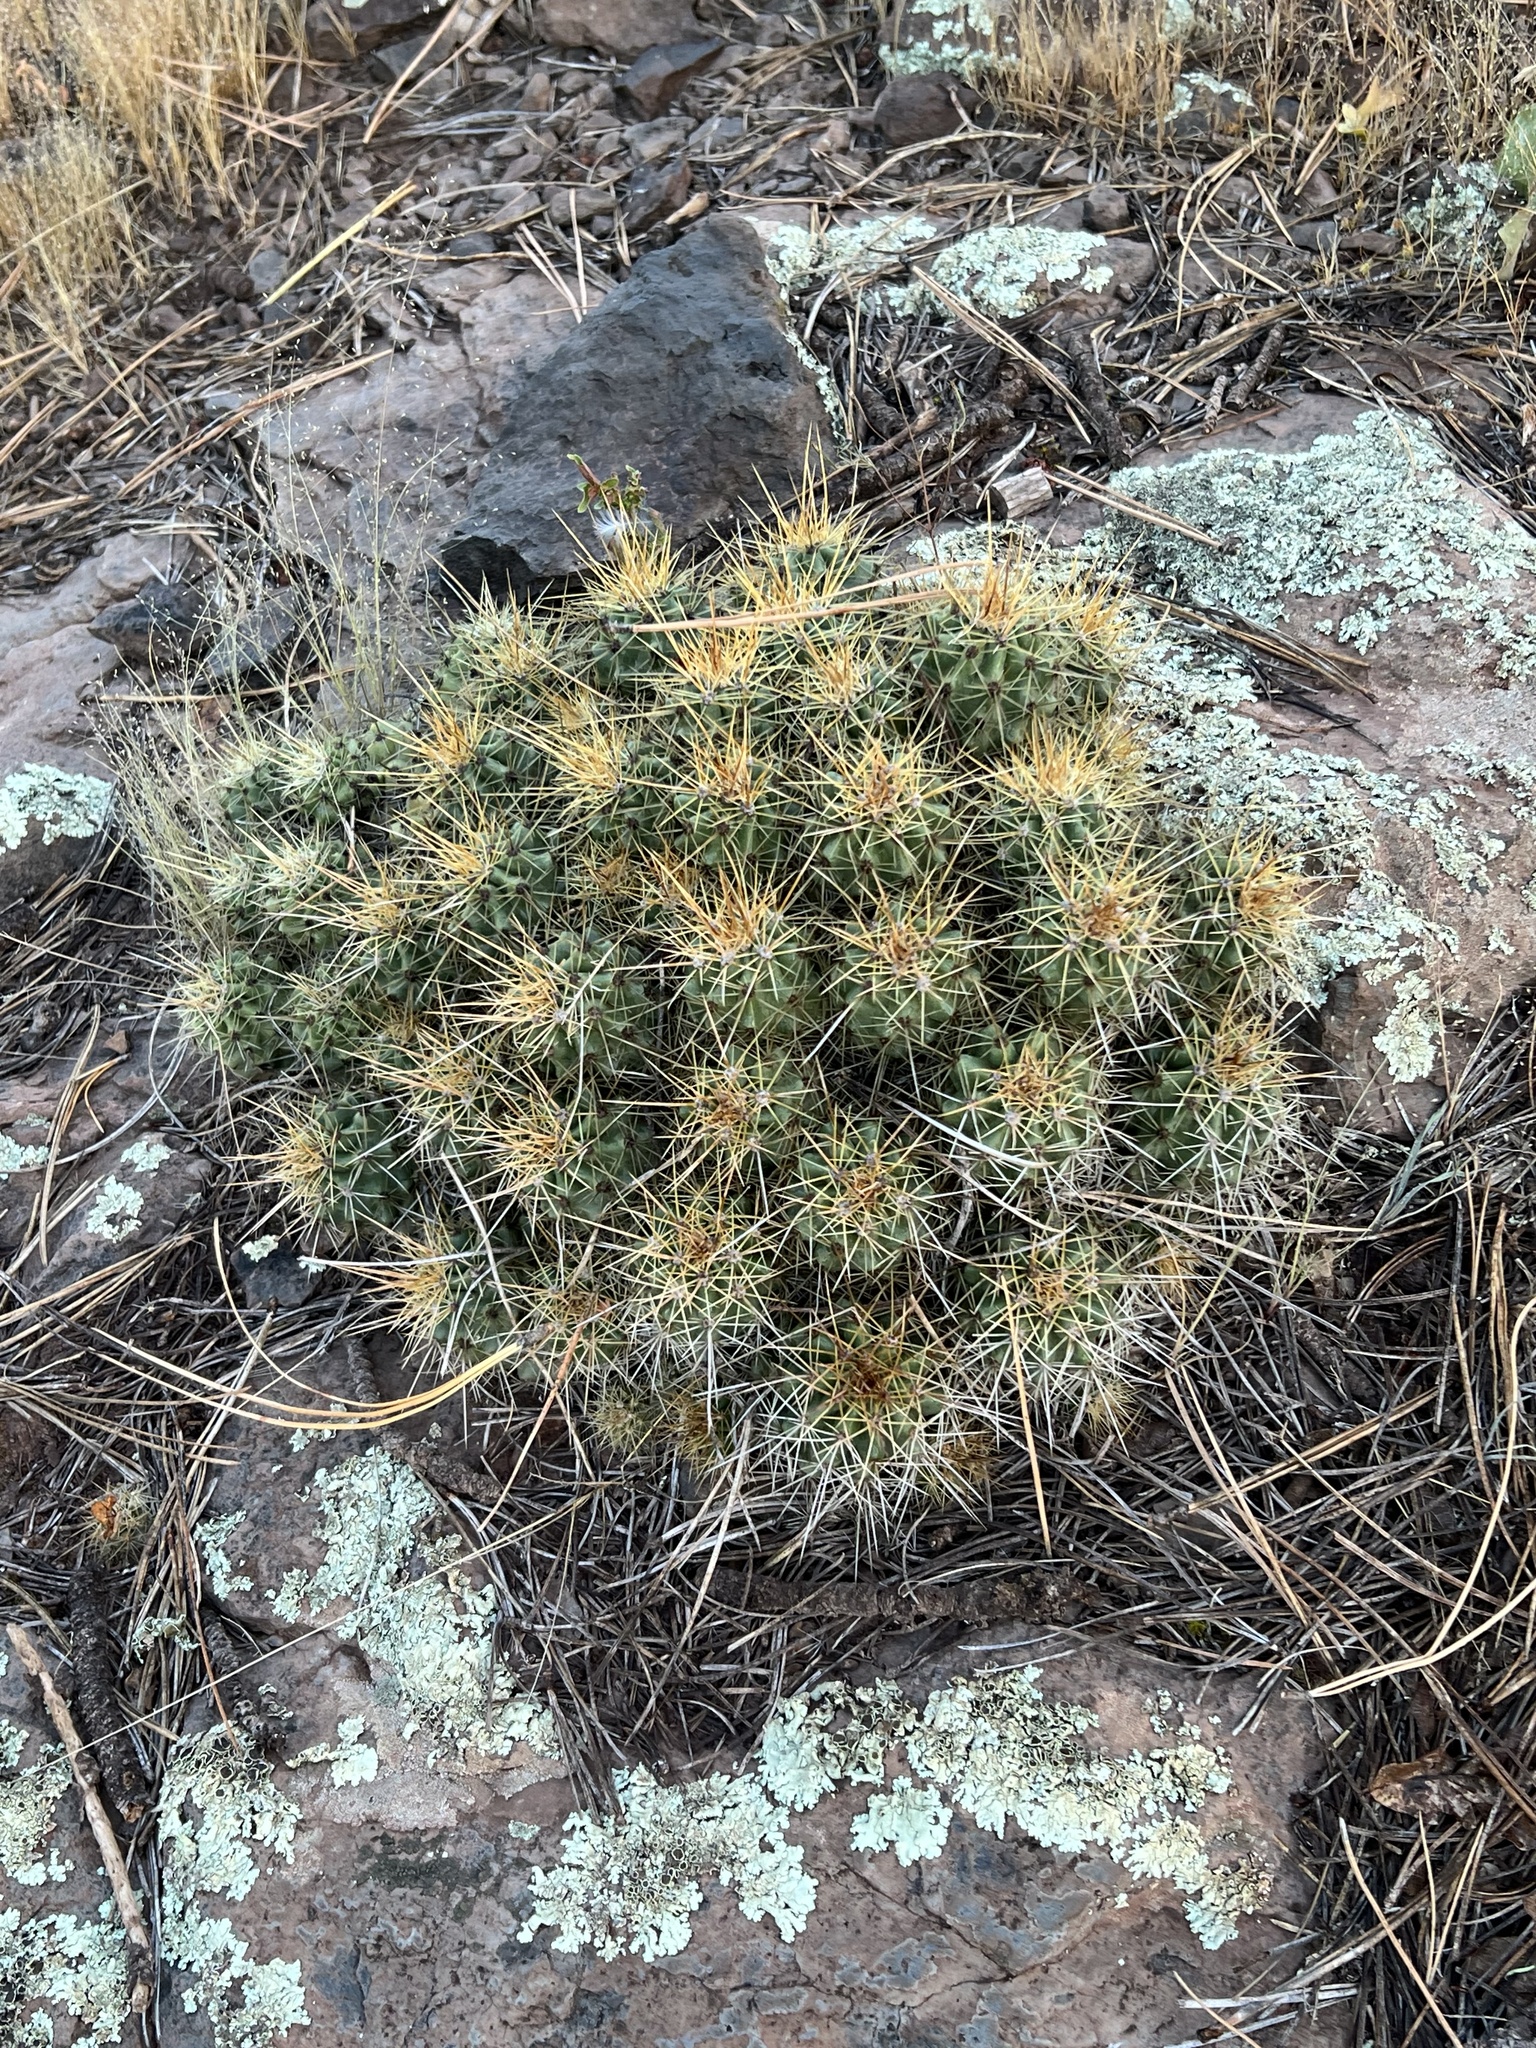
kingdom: Plantae
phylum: Tracheophyta
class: Magnoliopsida
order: Caryophyllales
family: Cactaceae
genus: Echinocereus
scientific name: Echinocereus bakeri
